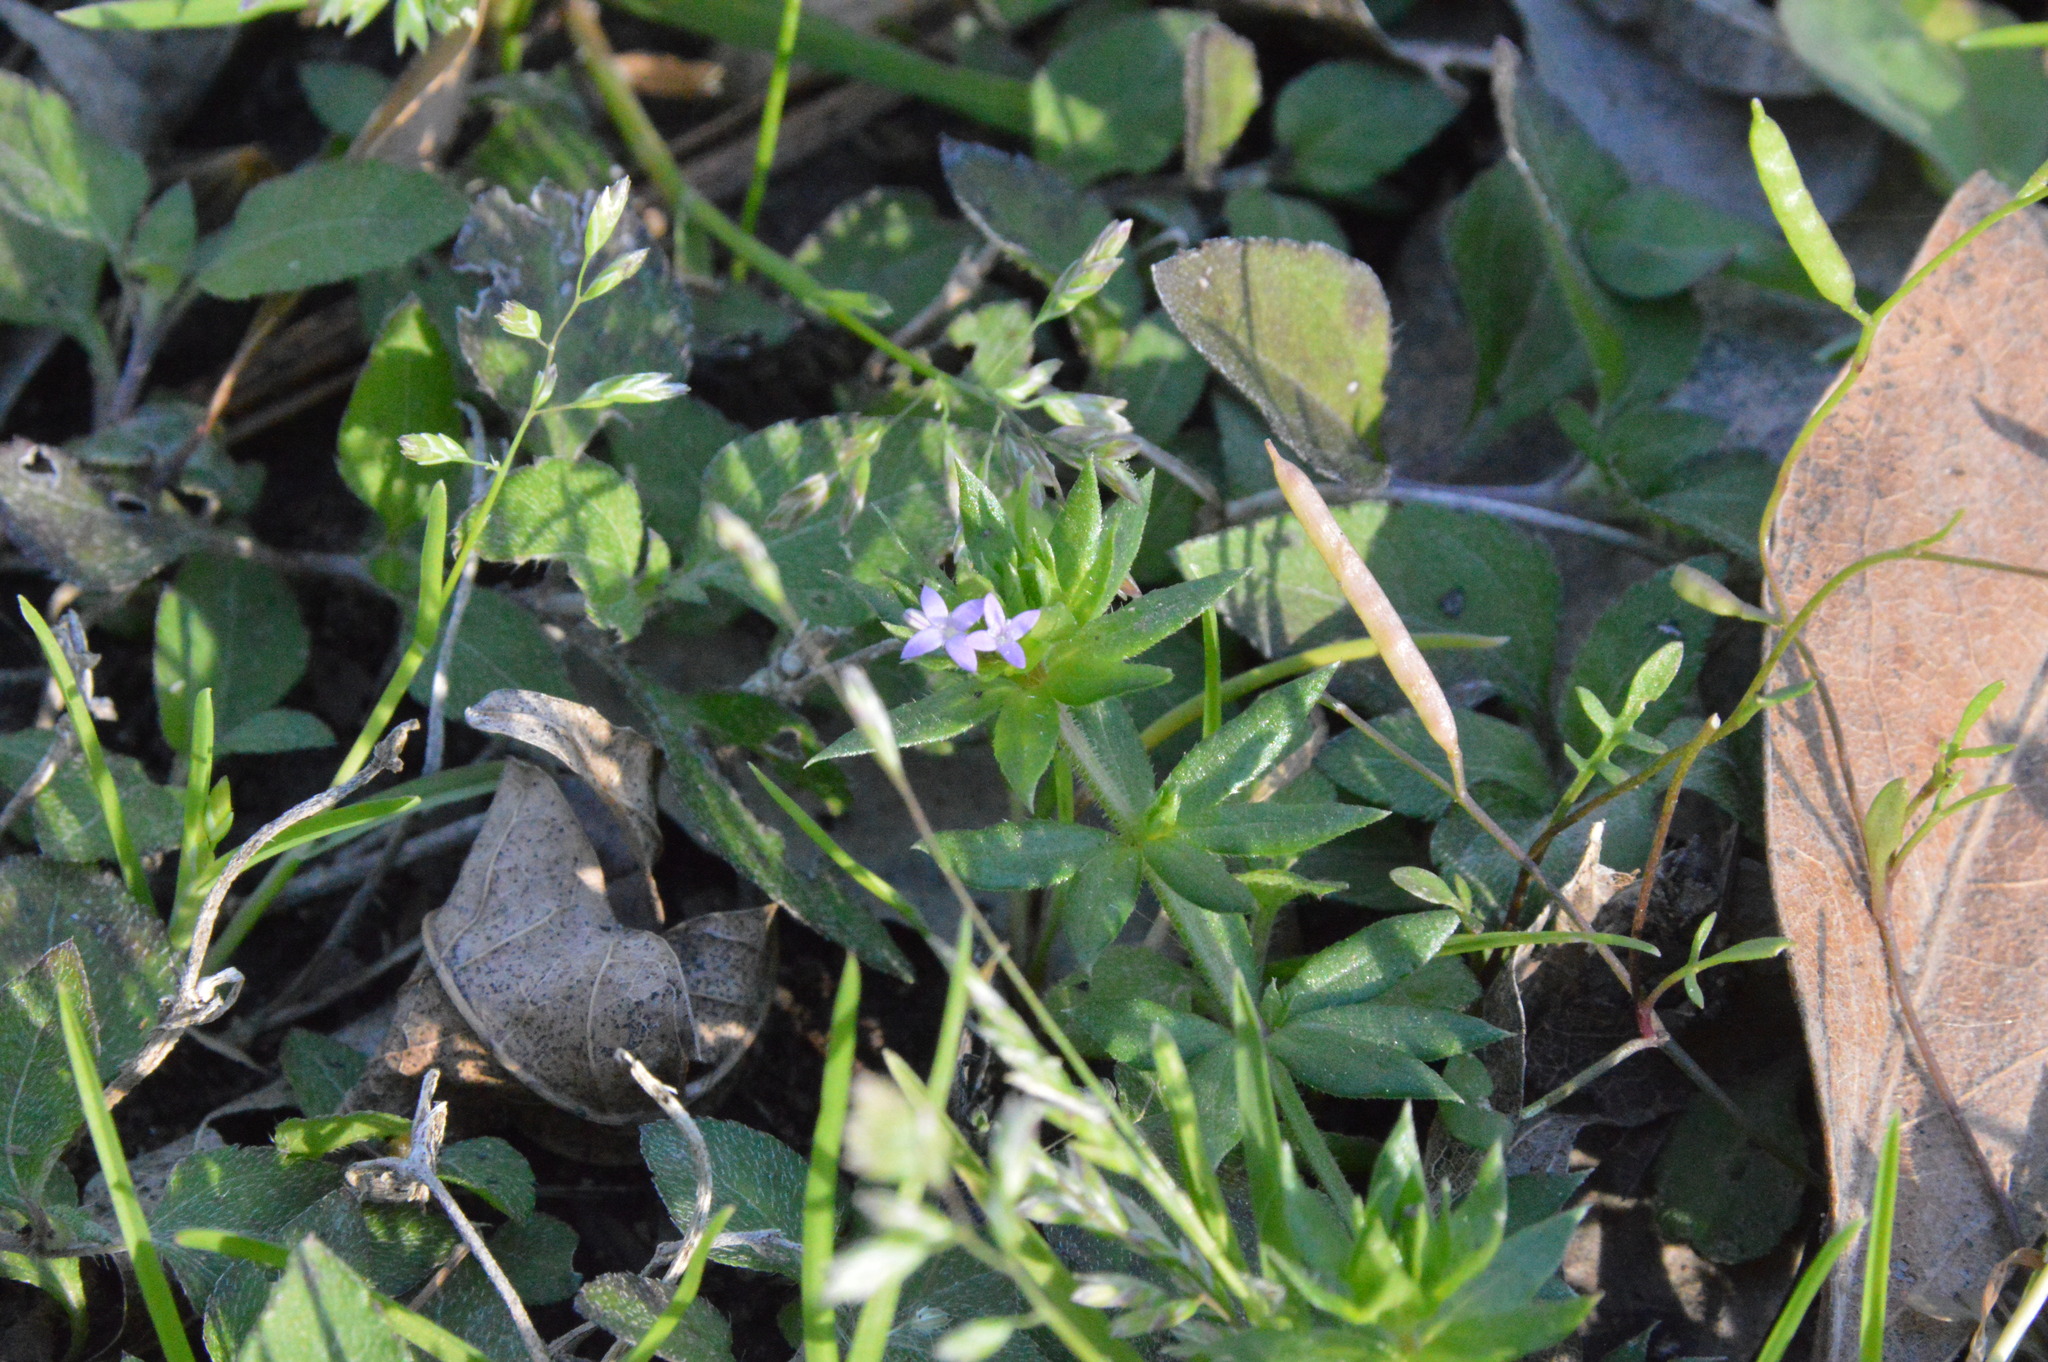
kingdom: Plantae
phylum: Tracheophyta
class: Magnoliopsida
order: Gentianales
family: Rubiaceae
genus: Sherardia
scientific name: Sherardia arvensis
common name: Field madder
